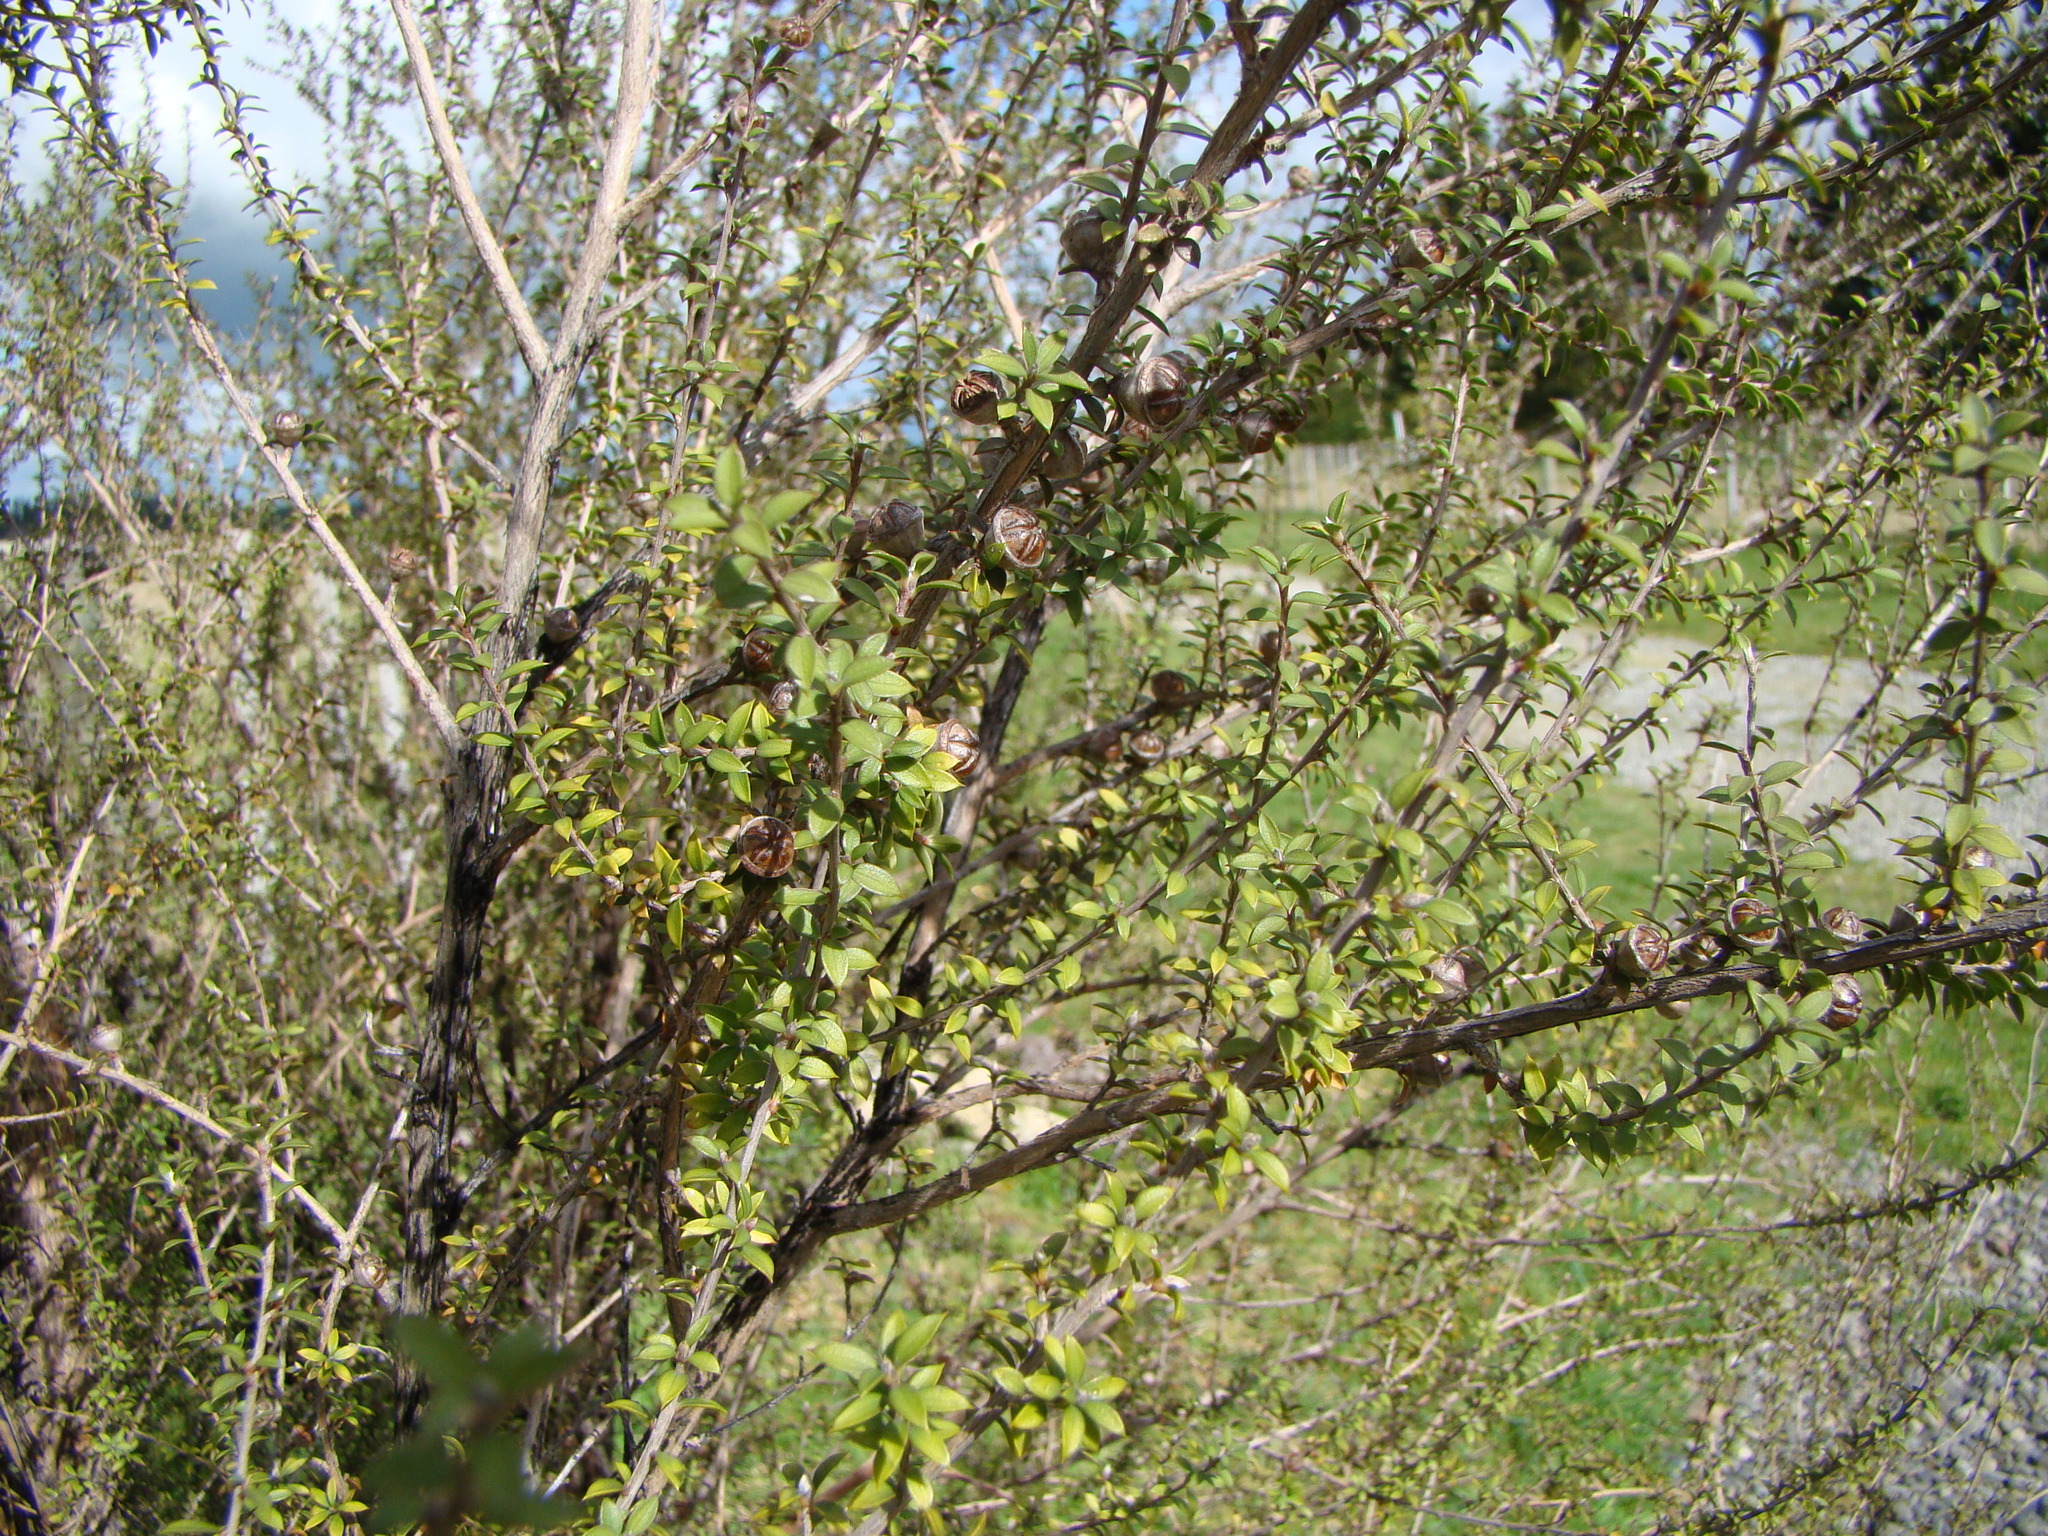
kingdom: Plantae
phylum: Tracheophyta
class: Magnoliopsida
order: Myrtales
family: Myrtaceae
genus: Leptospermum
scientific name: Leptospermum scoparium
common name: Broom tea-tree
